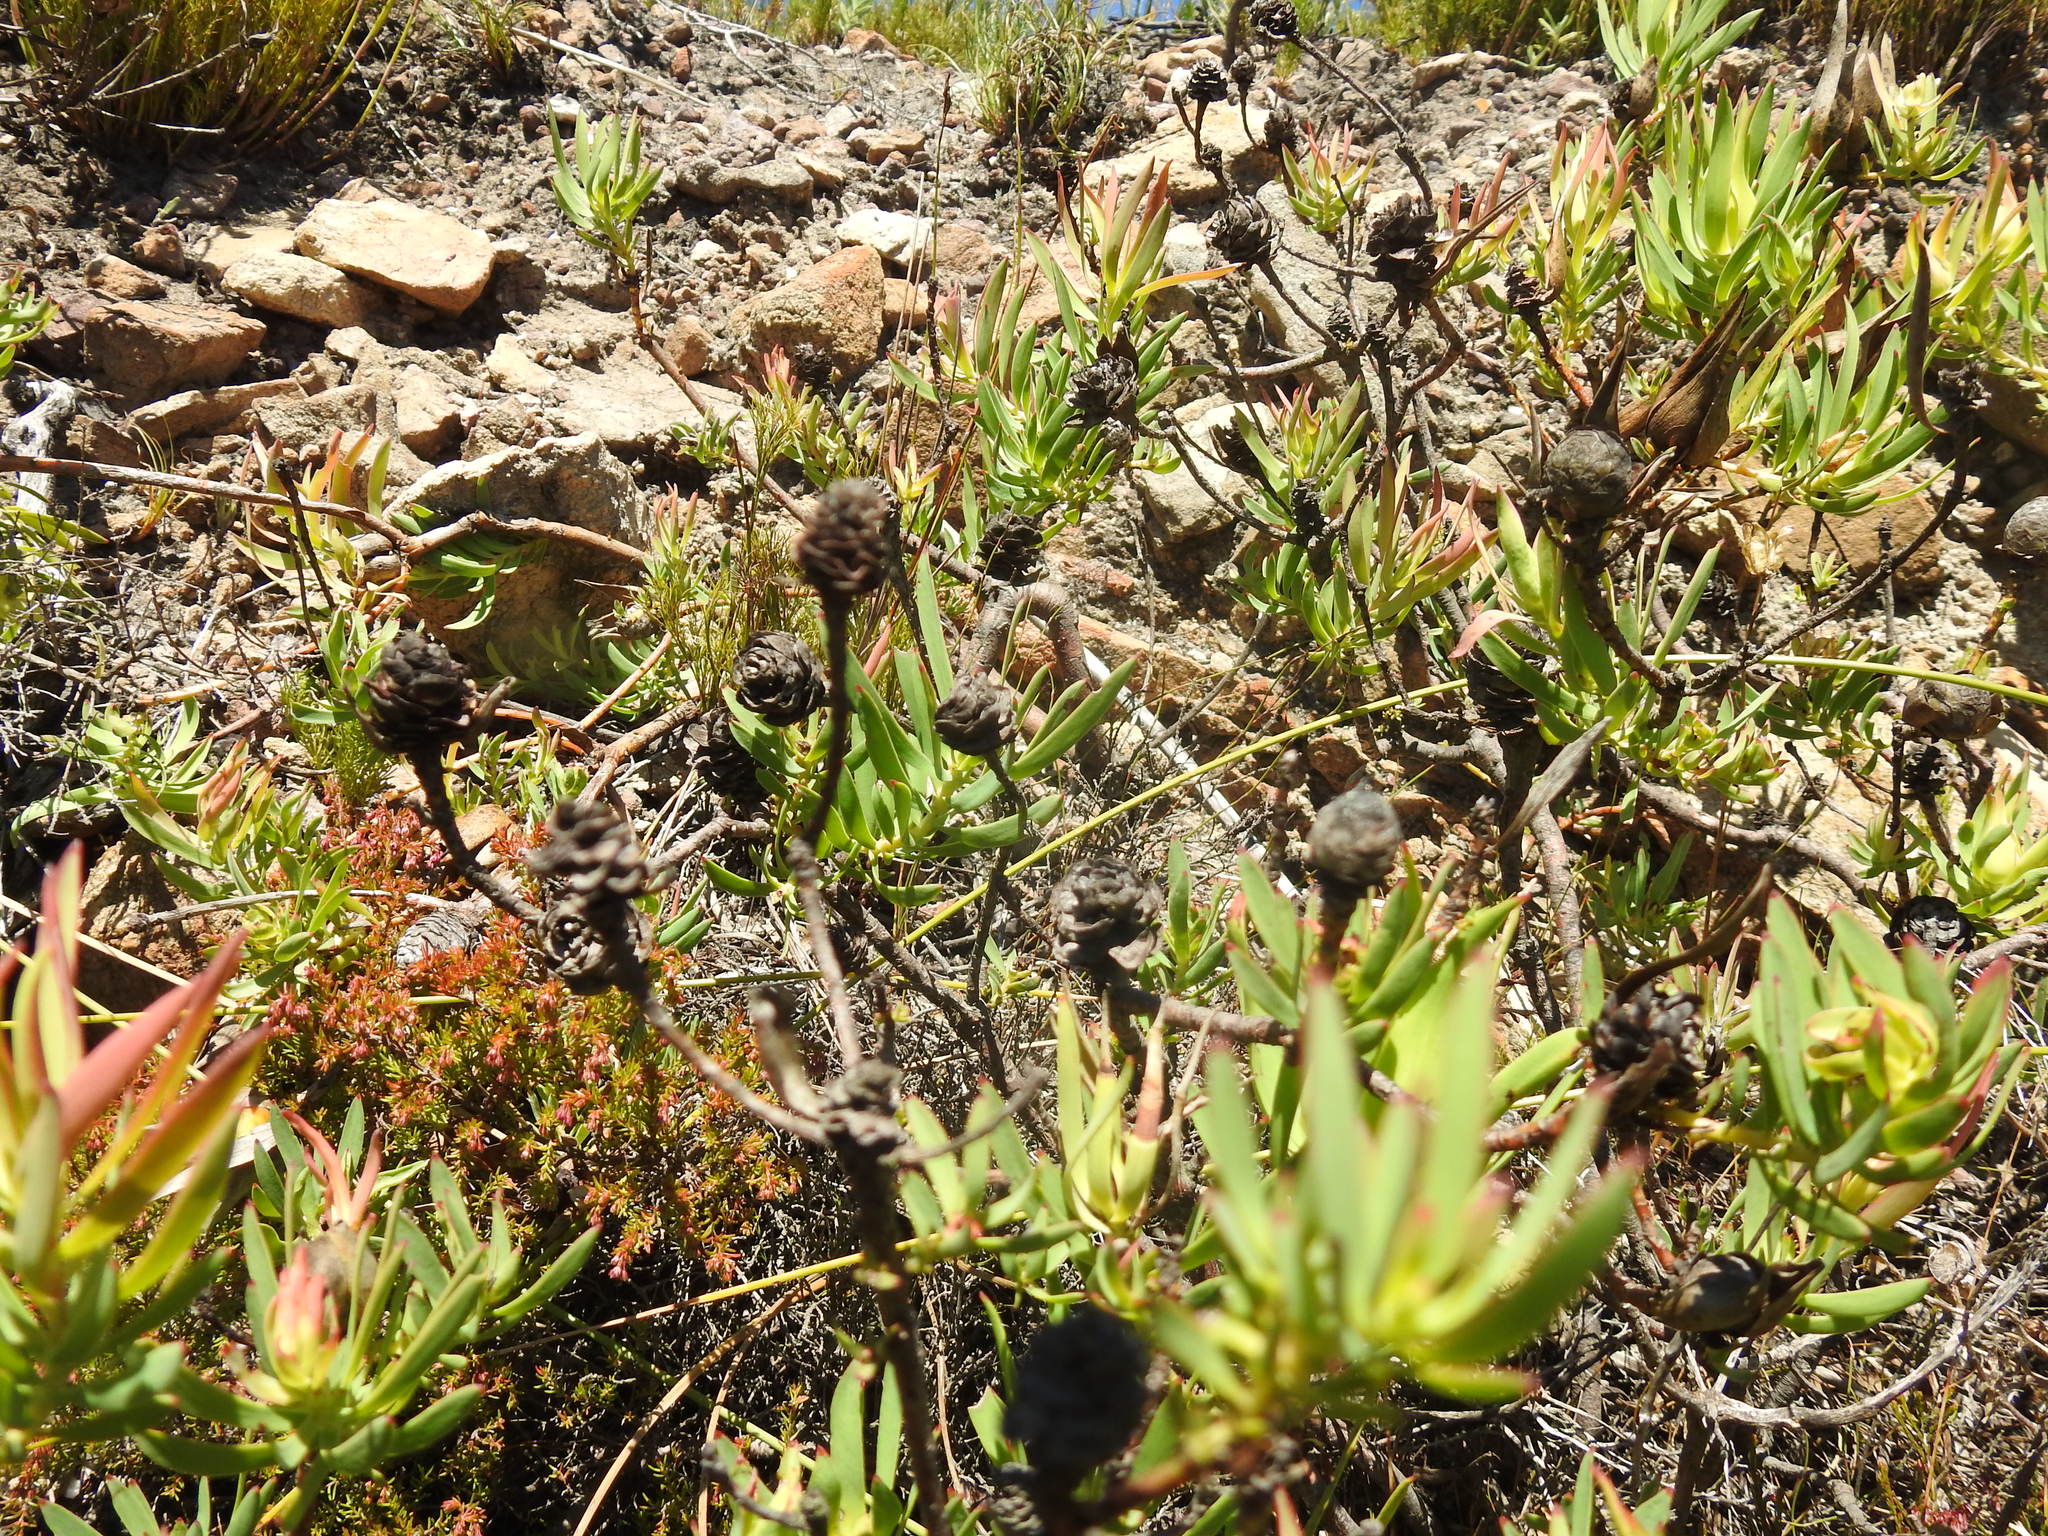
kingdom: Plantae
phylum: Tracheophyta
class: Magnoliopsida
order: Proteales
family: Proteaceae
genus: Leucadendron
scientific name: Leucadendron salignum
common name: Common sunshine conebush
